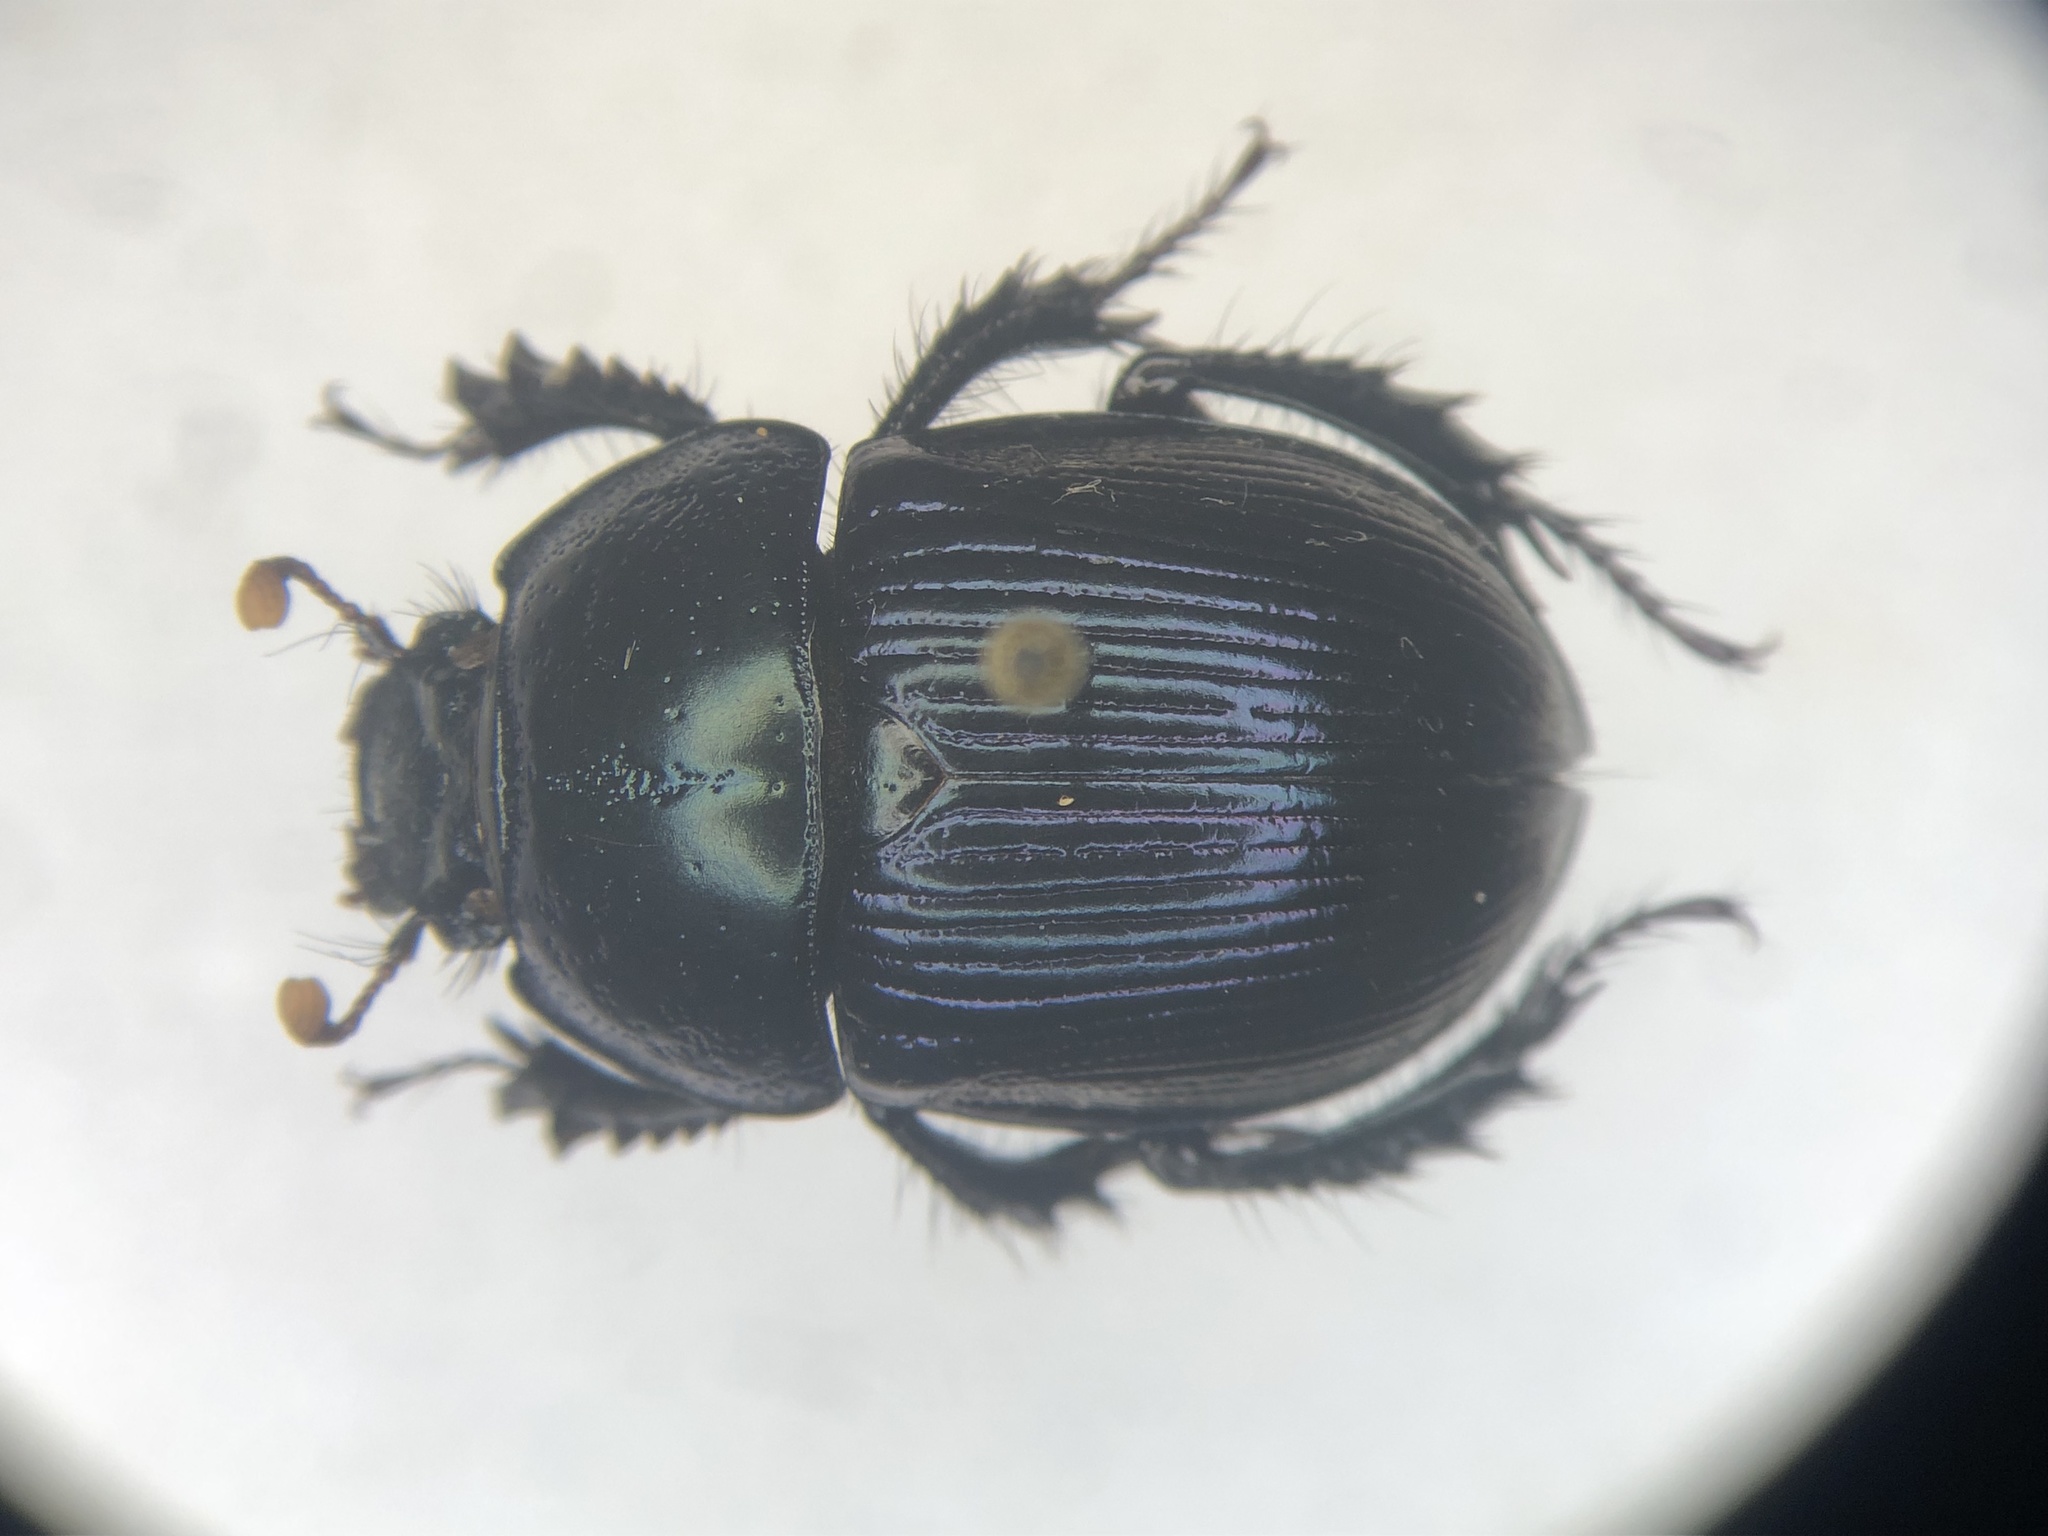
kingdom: Animalia
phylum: Arthropoda
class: Insecta
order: Coleoptera
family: Geotrupidae
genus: Anoplotrupes
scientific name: Anoplotrupes balyi
